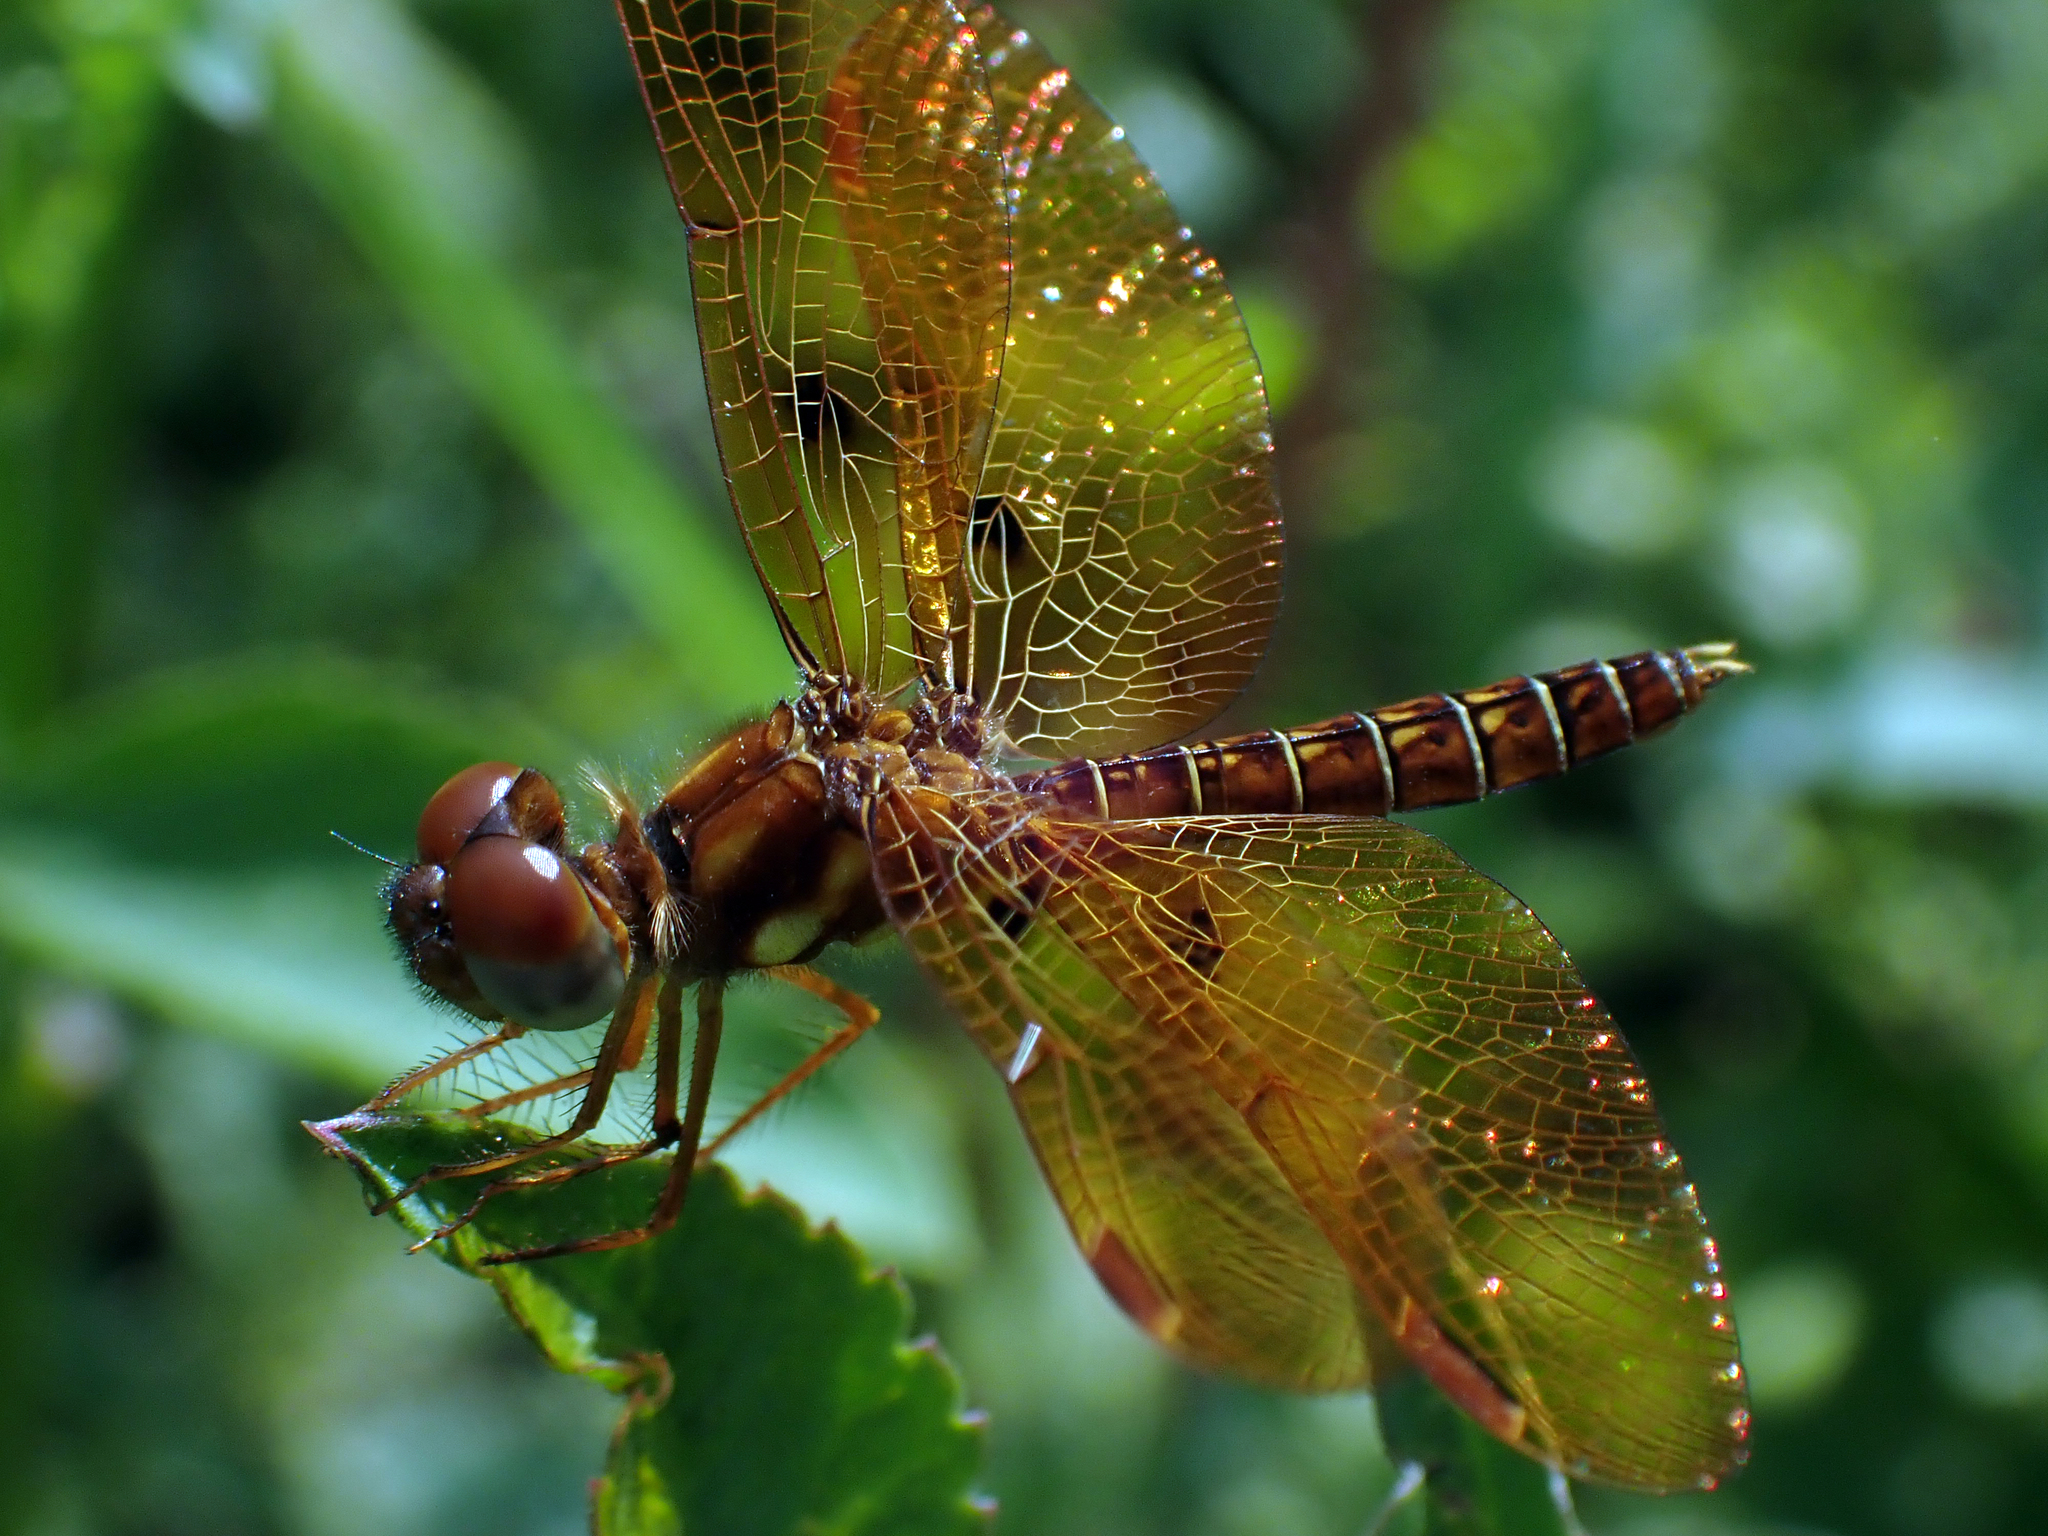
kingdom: Animalia
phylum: Arthropoda
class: Insecta
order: Odonata
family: Libellulidae
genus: Perithemis
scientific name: Perithemis tenera
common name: Eastern amberwing
